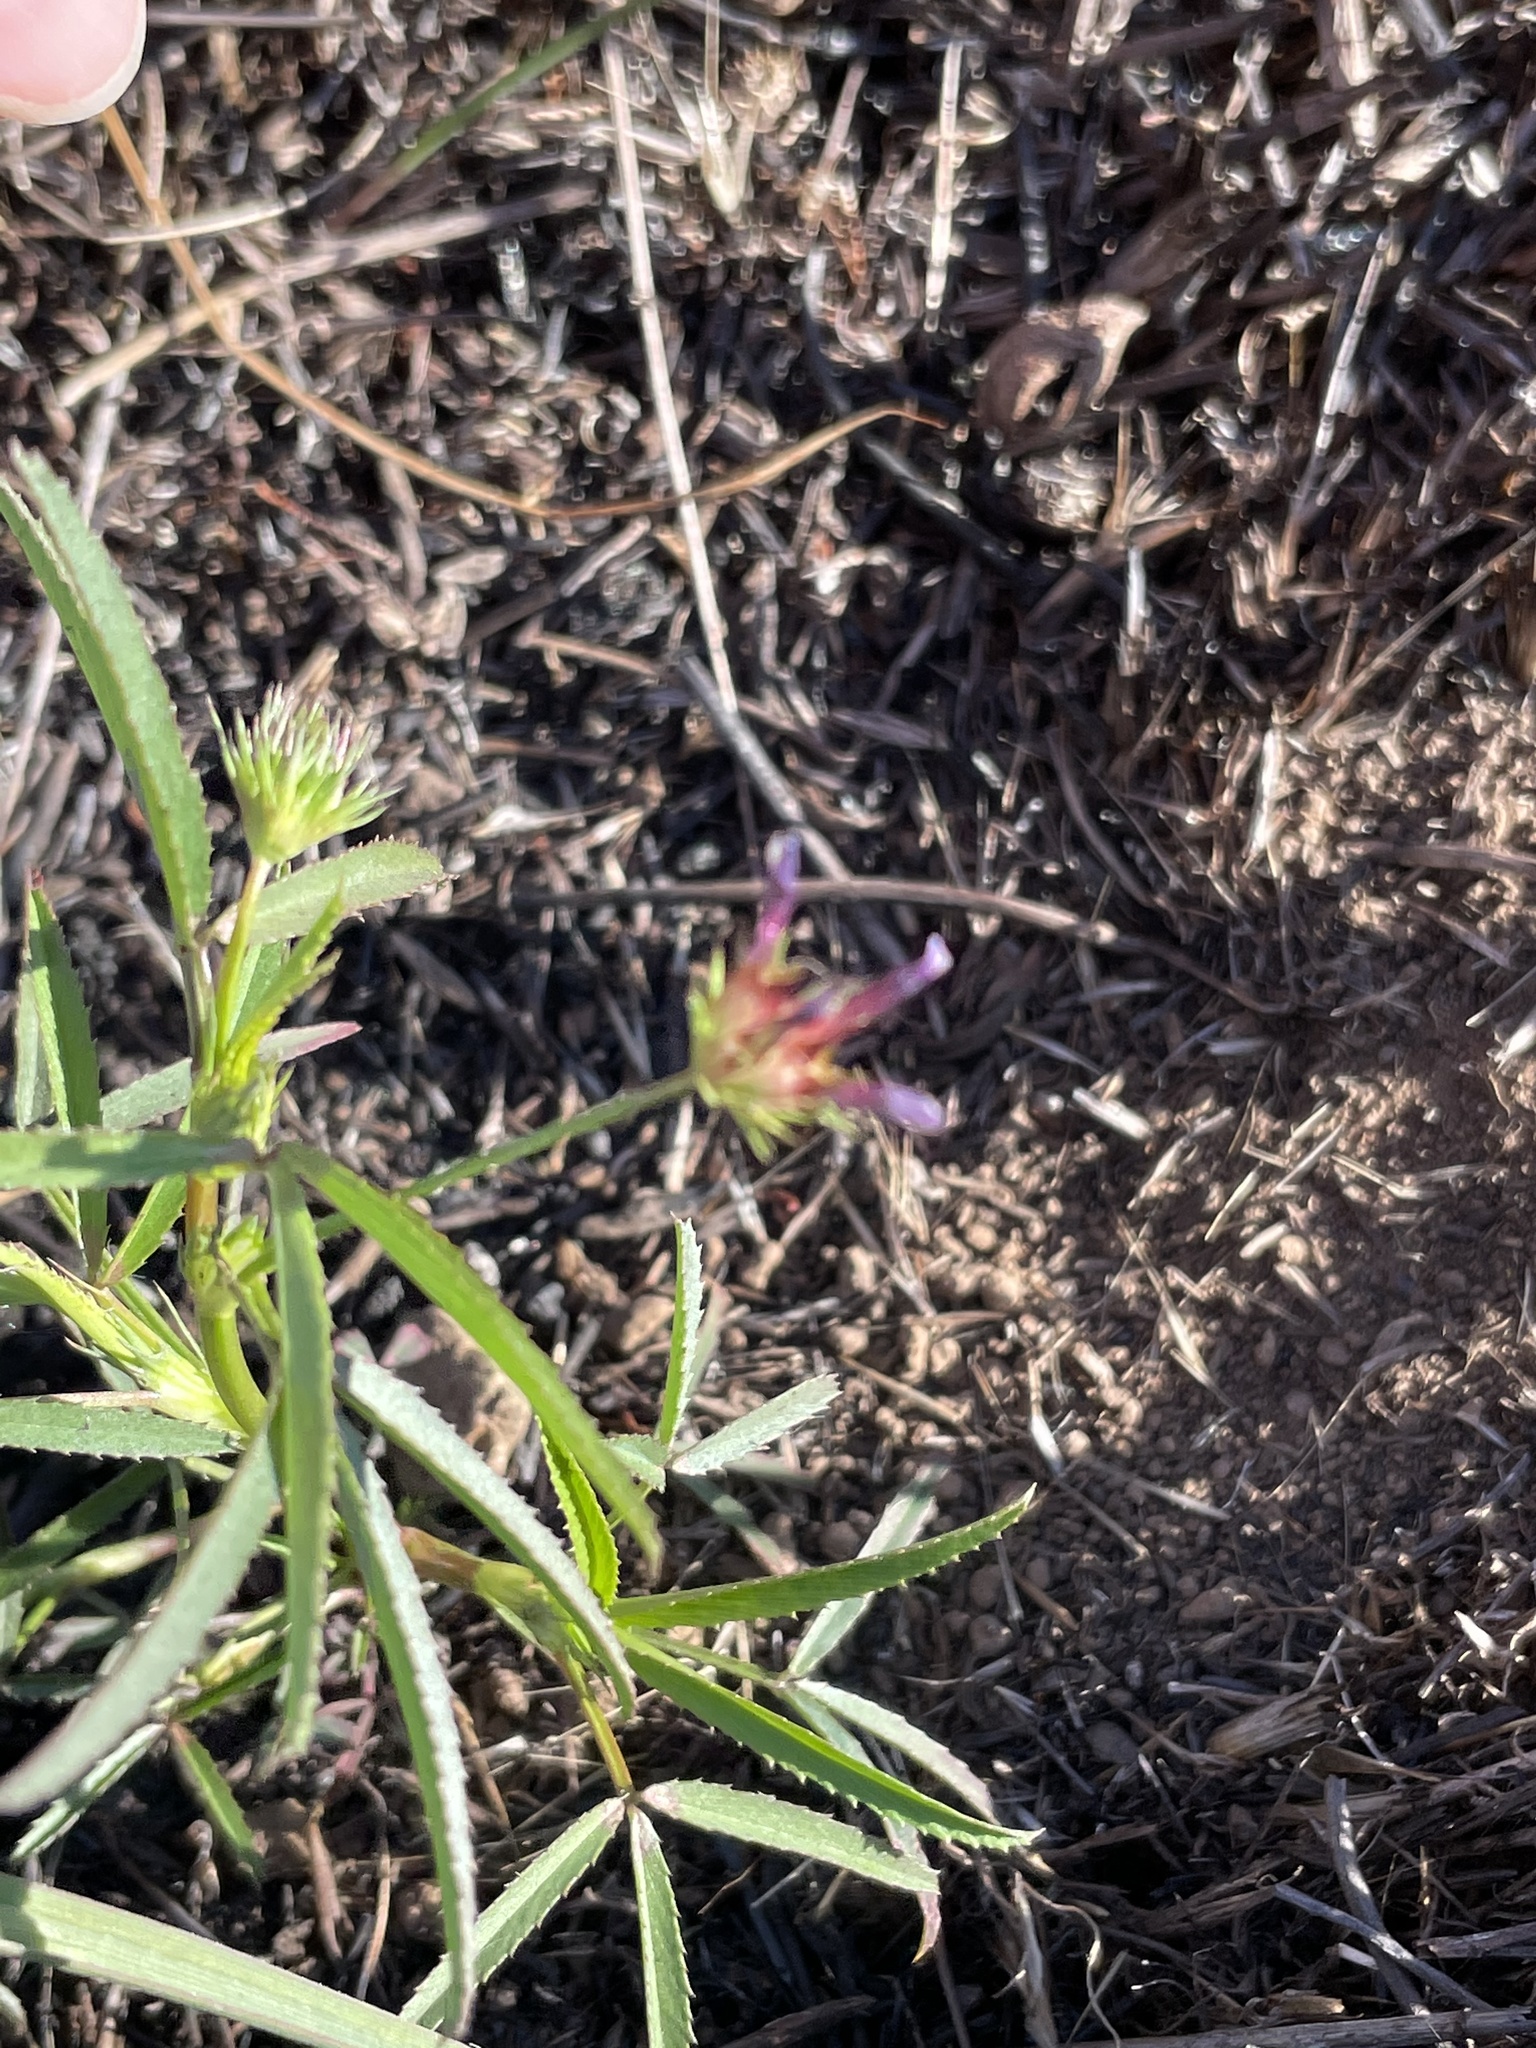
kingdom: Plantae
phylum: Tracheophyta
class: Magnoliopsida
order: Fabales
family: Fabaceae
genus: Trifolium
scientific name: Trifolium willdenovii
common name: Tomcat clover
